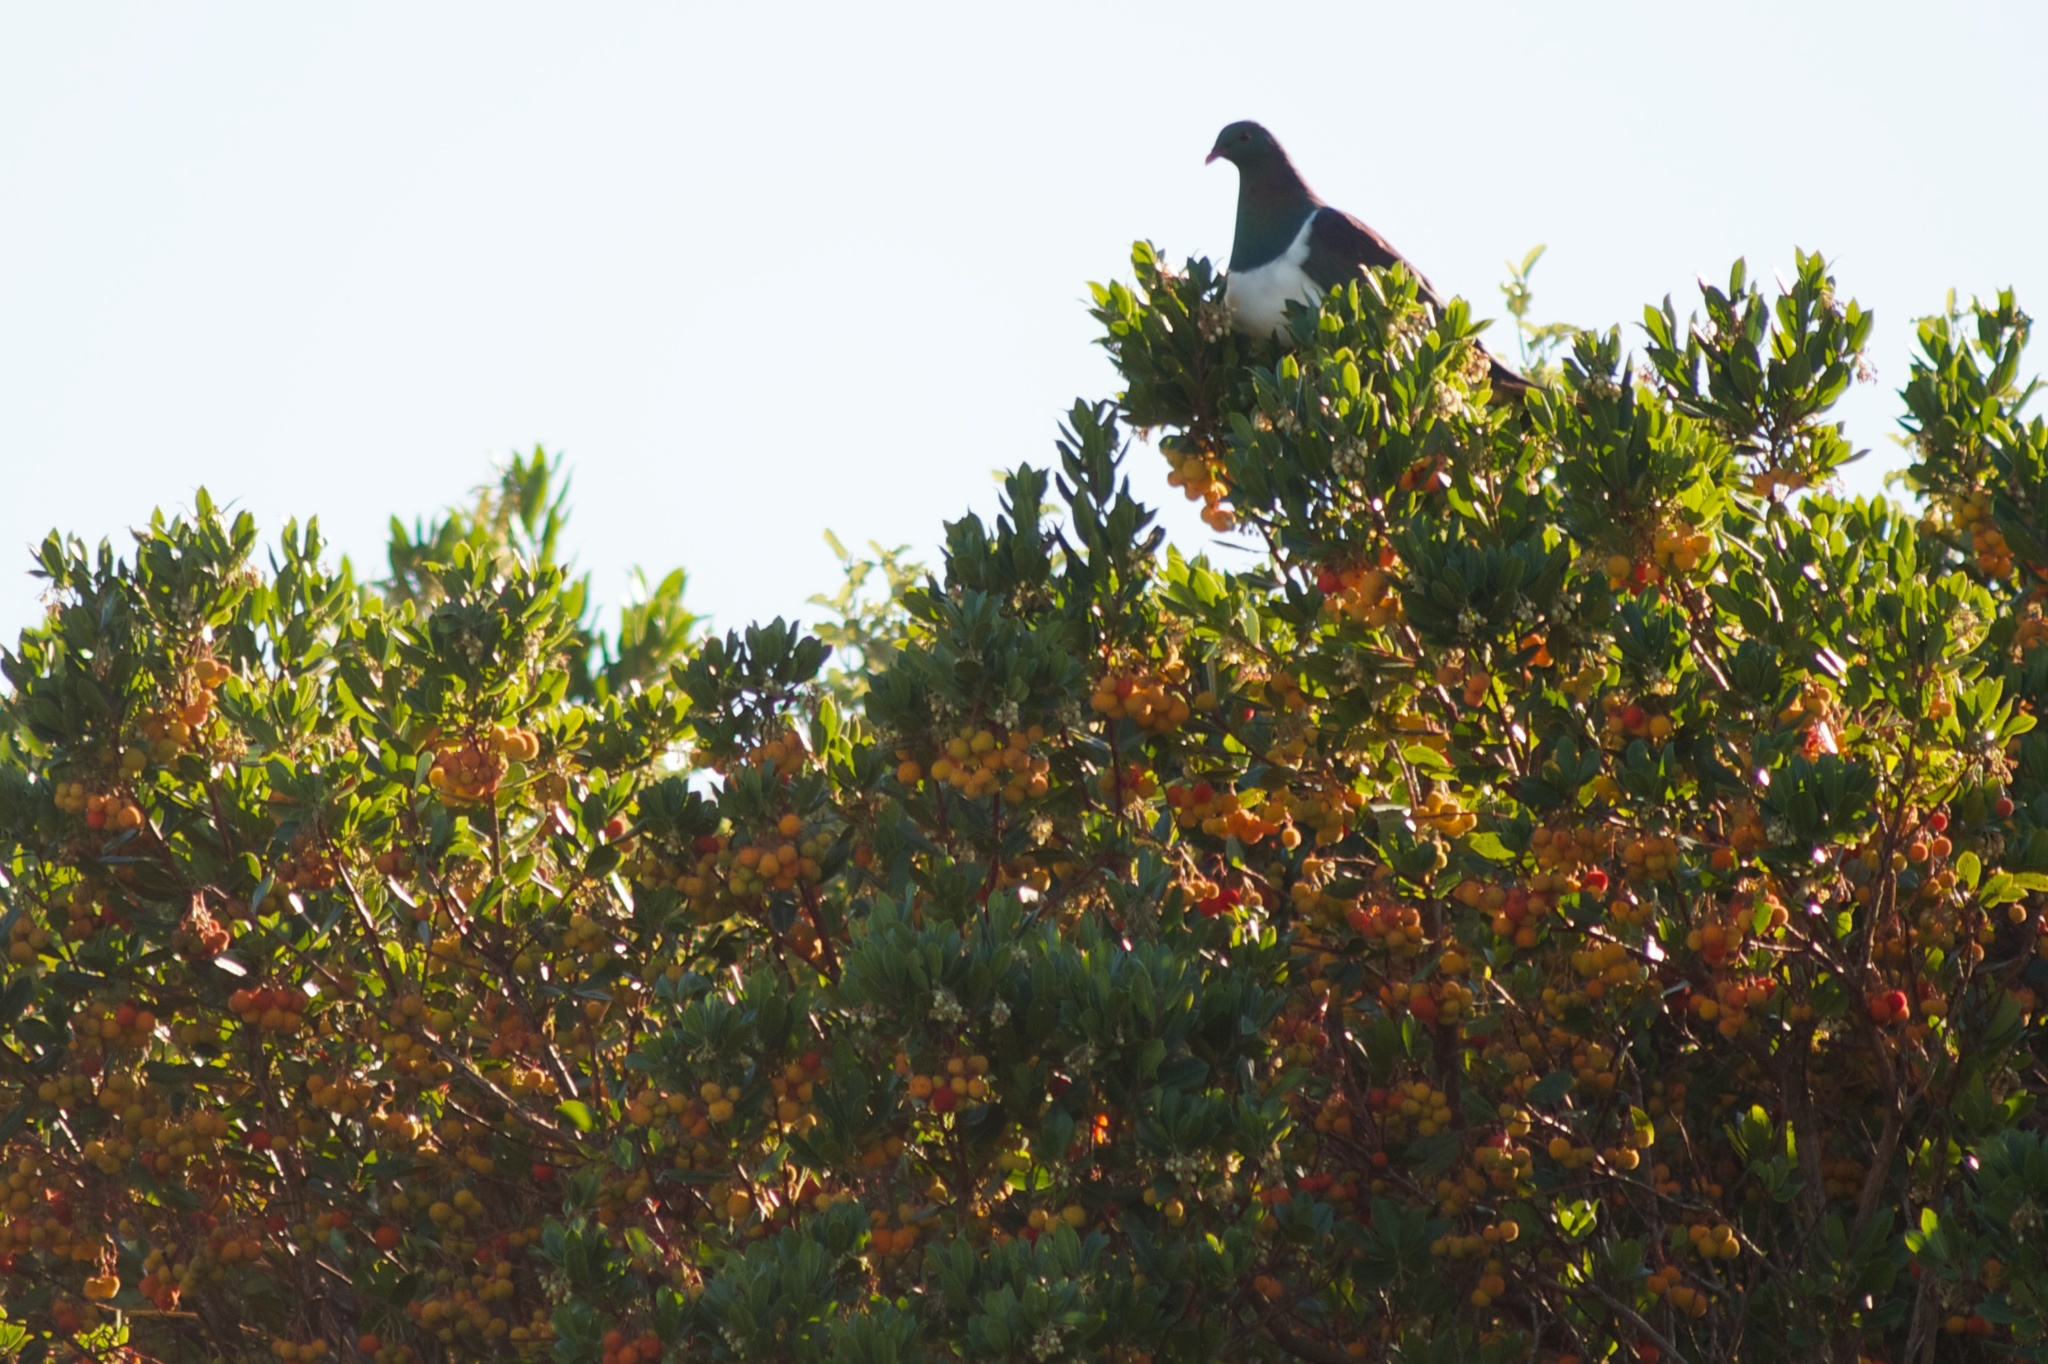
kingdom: Animalia
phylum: Chordata
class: Aves
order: Columbiformes
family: Columbidae
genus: Hemiphaga
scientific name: Hemiphaga novaeseelandiae
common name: New zealand pigeon
